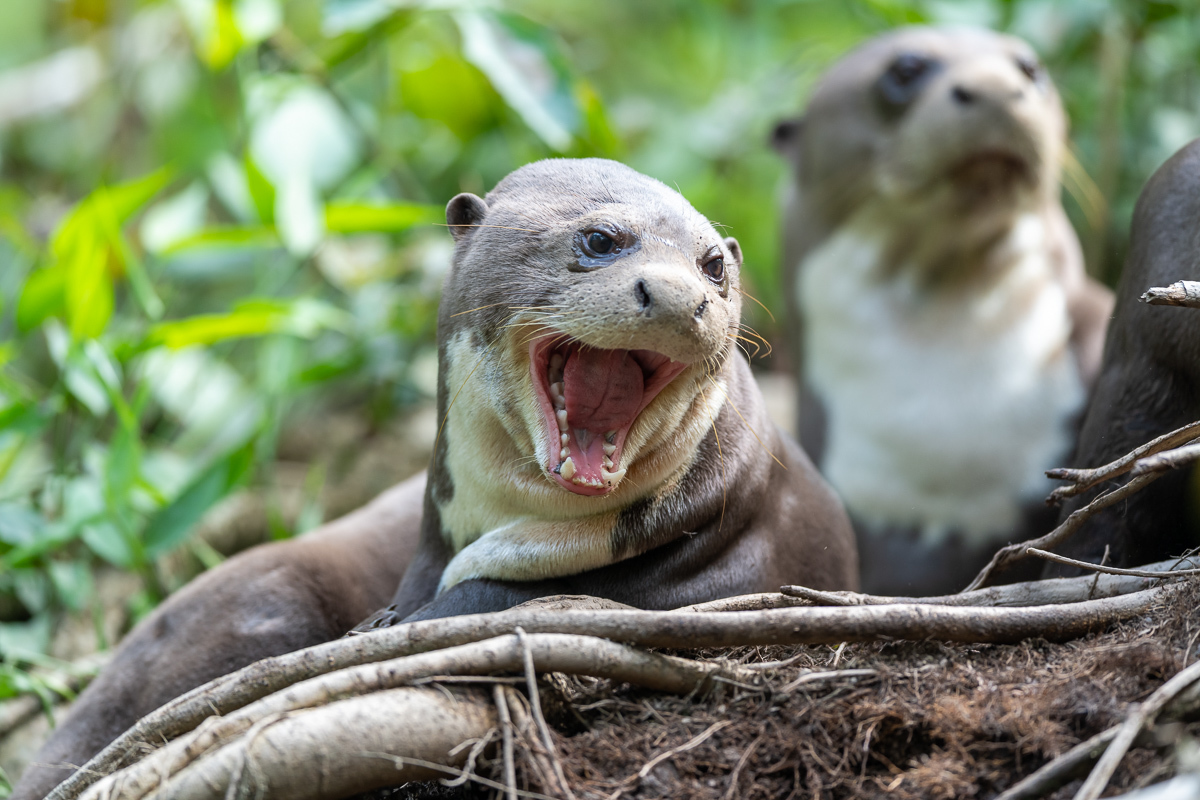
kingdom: Animalia
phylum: Chordata
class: Mammalia
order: Carnivora
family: Mustelidae
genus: Pteronura
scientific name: Pteronura brasiliensis
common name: Giant otter
